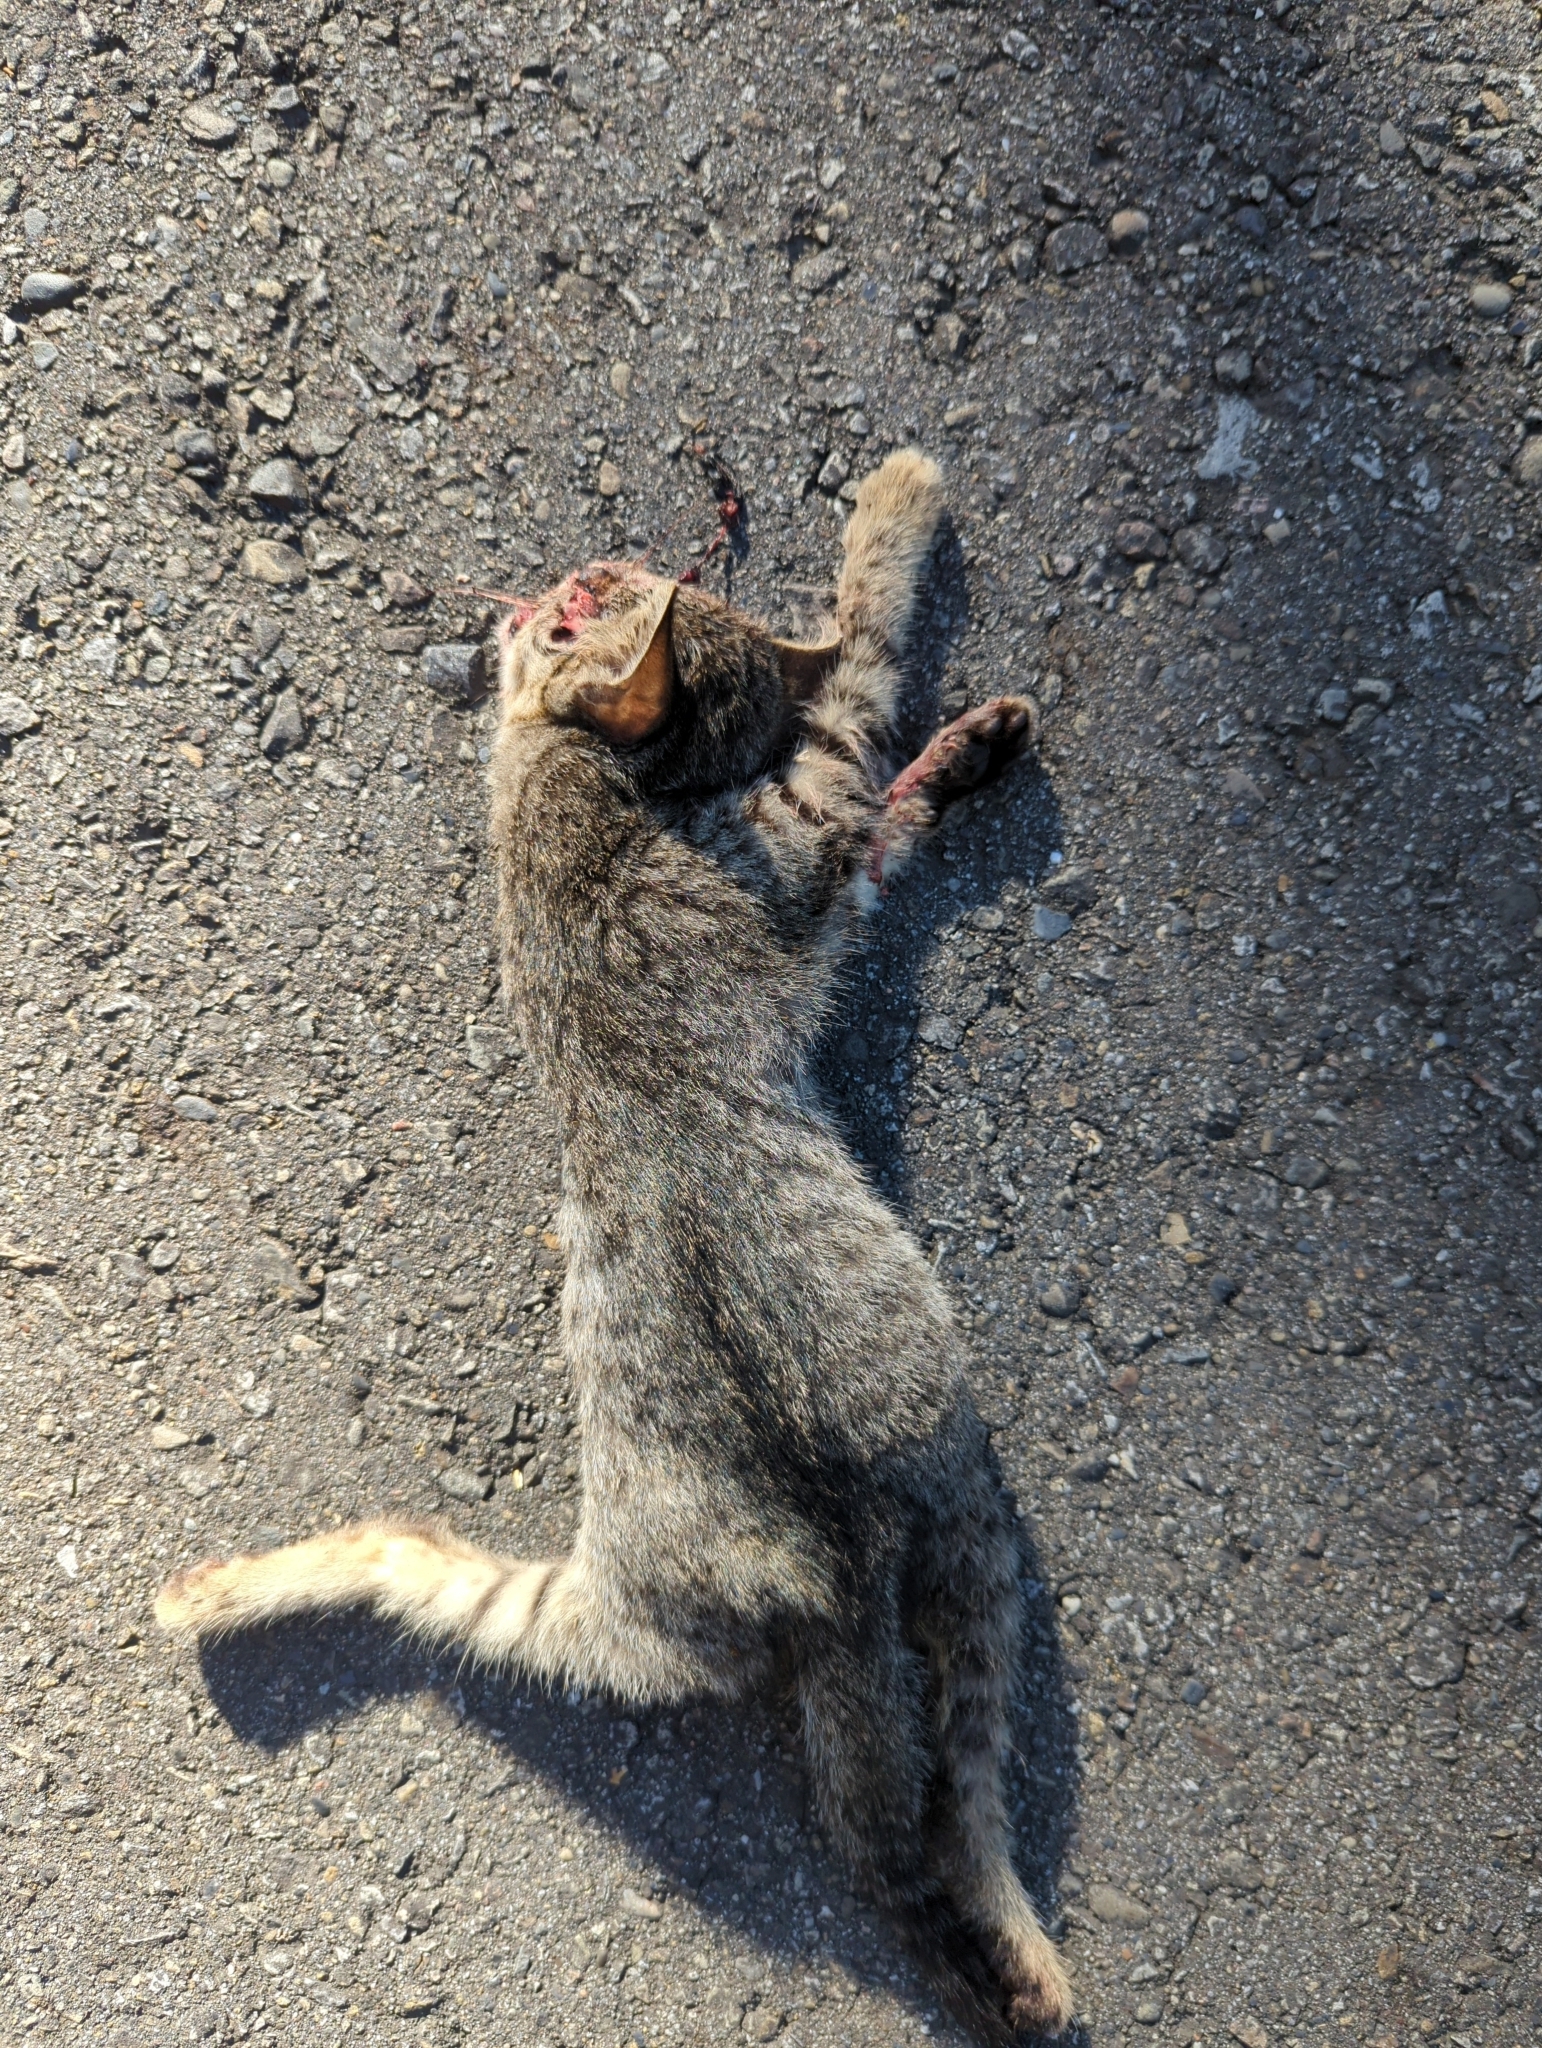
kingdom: Animalia
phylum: Chordata
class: Mammalia
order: Carnivora
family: Felidae
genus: Felis
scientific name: Felis catus
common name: Domestic cat
